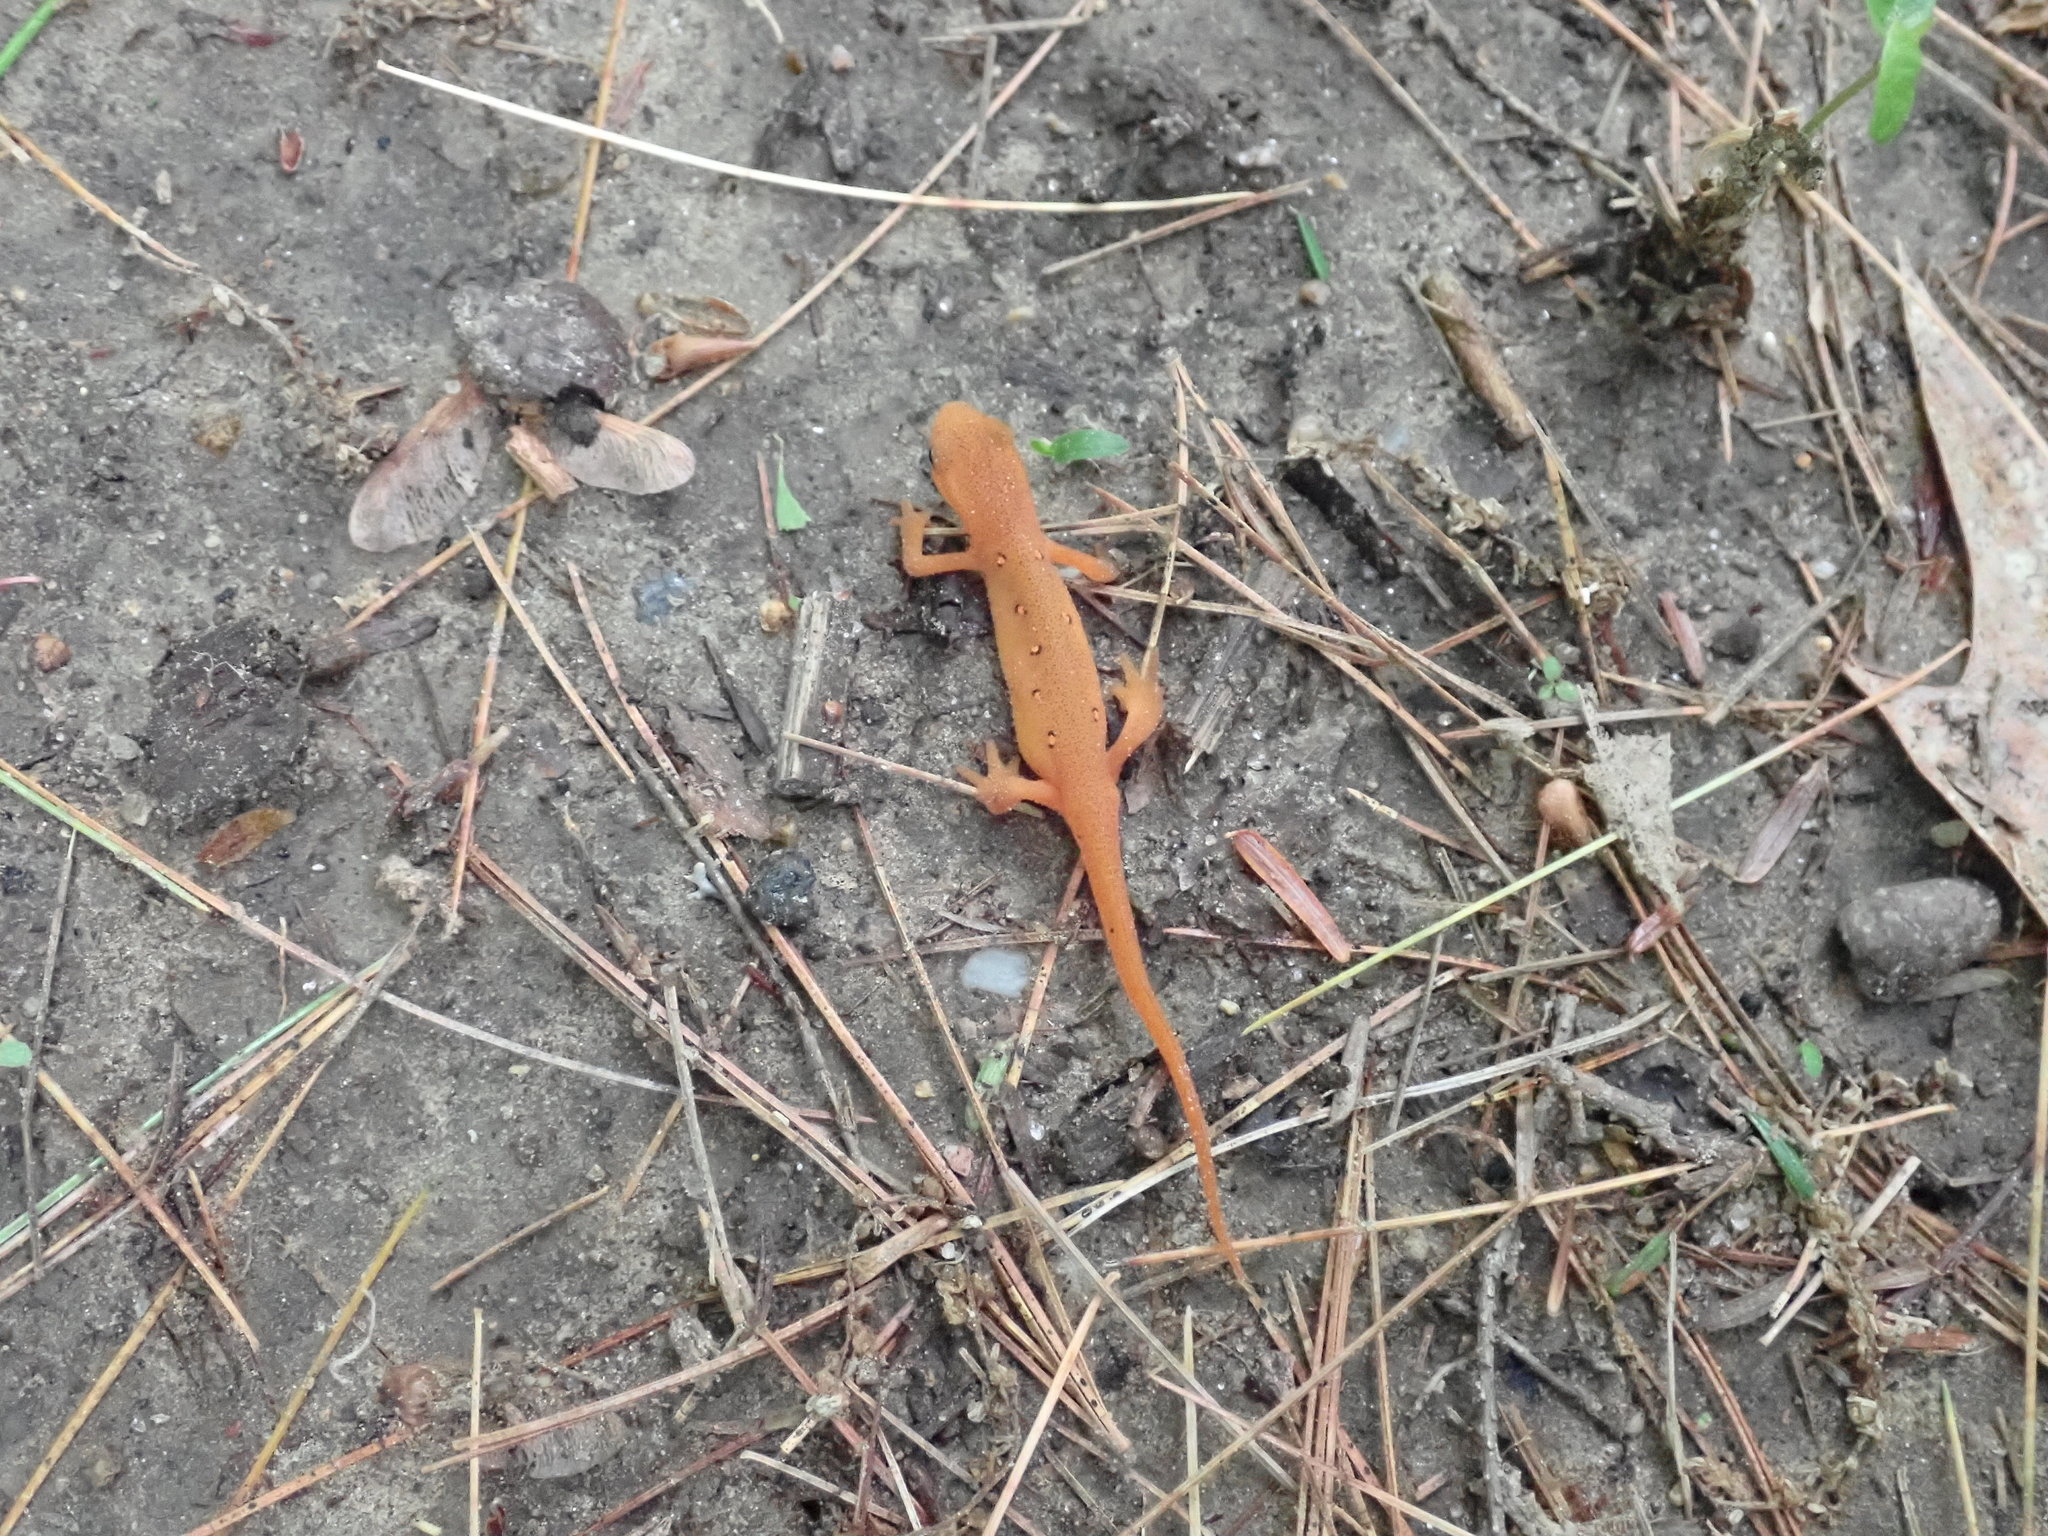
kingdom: Animalia
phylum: Chordata
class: Amphibia
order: Caudata
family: Salamandridae
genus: Notophthalmus
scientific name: Notophthalmus viridescens
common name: Eastern newt
